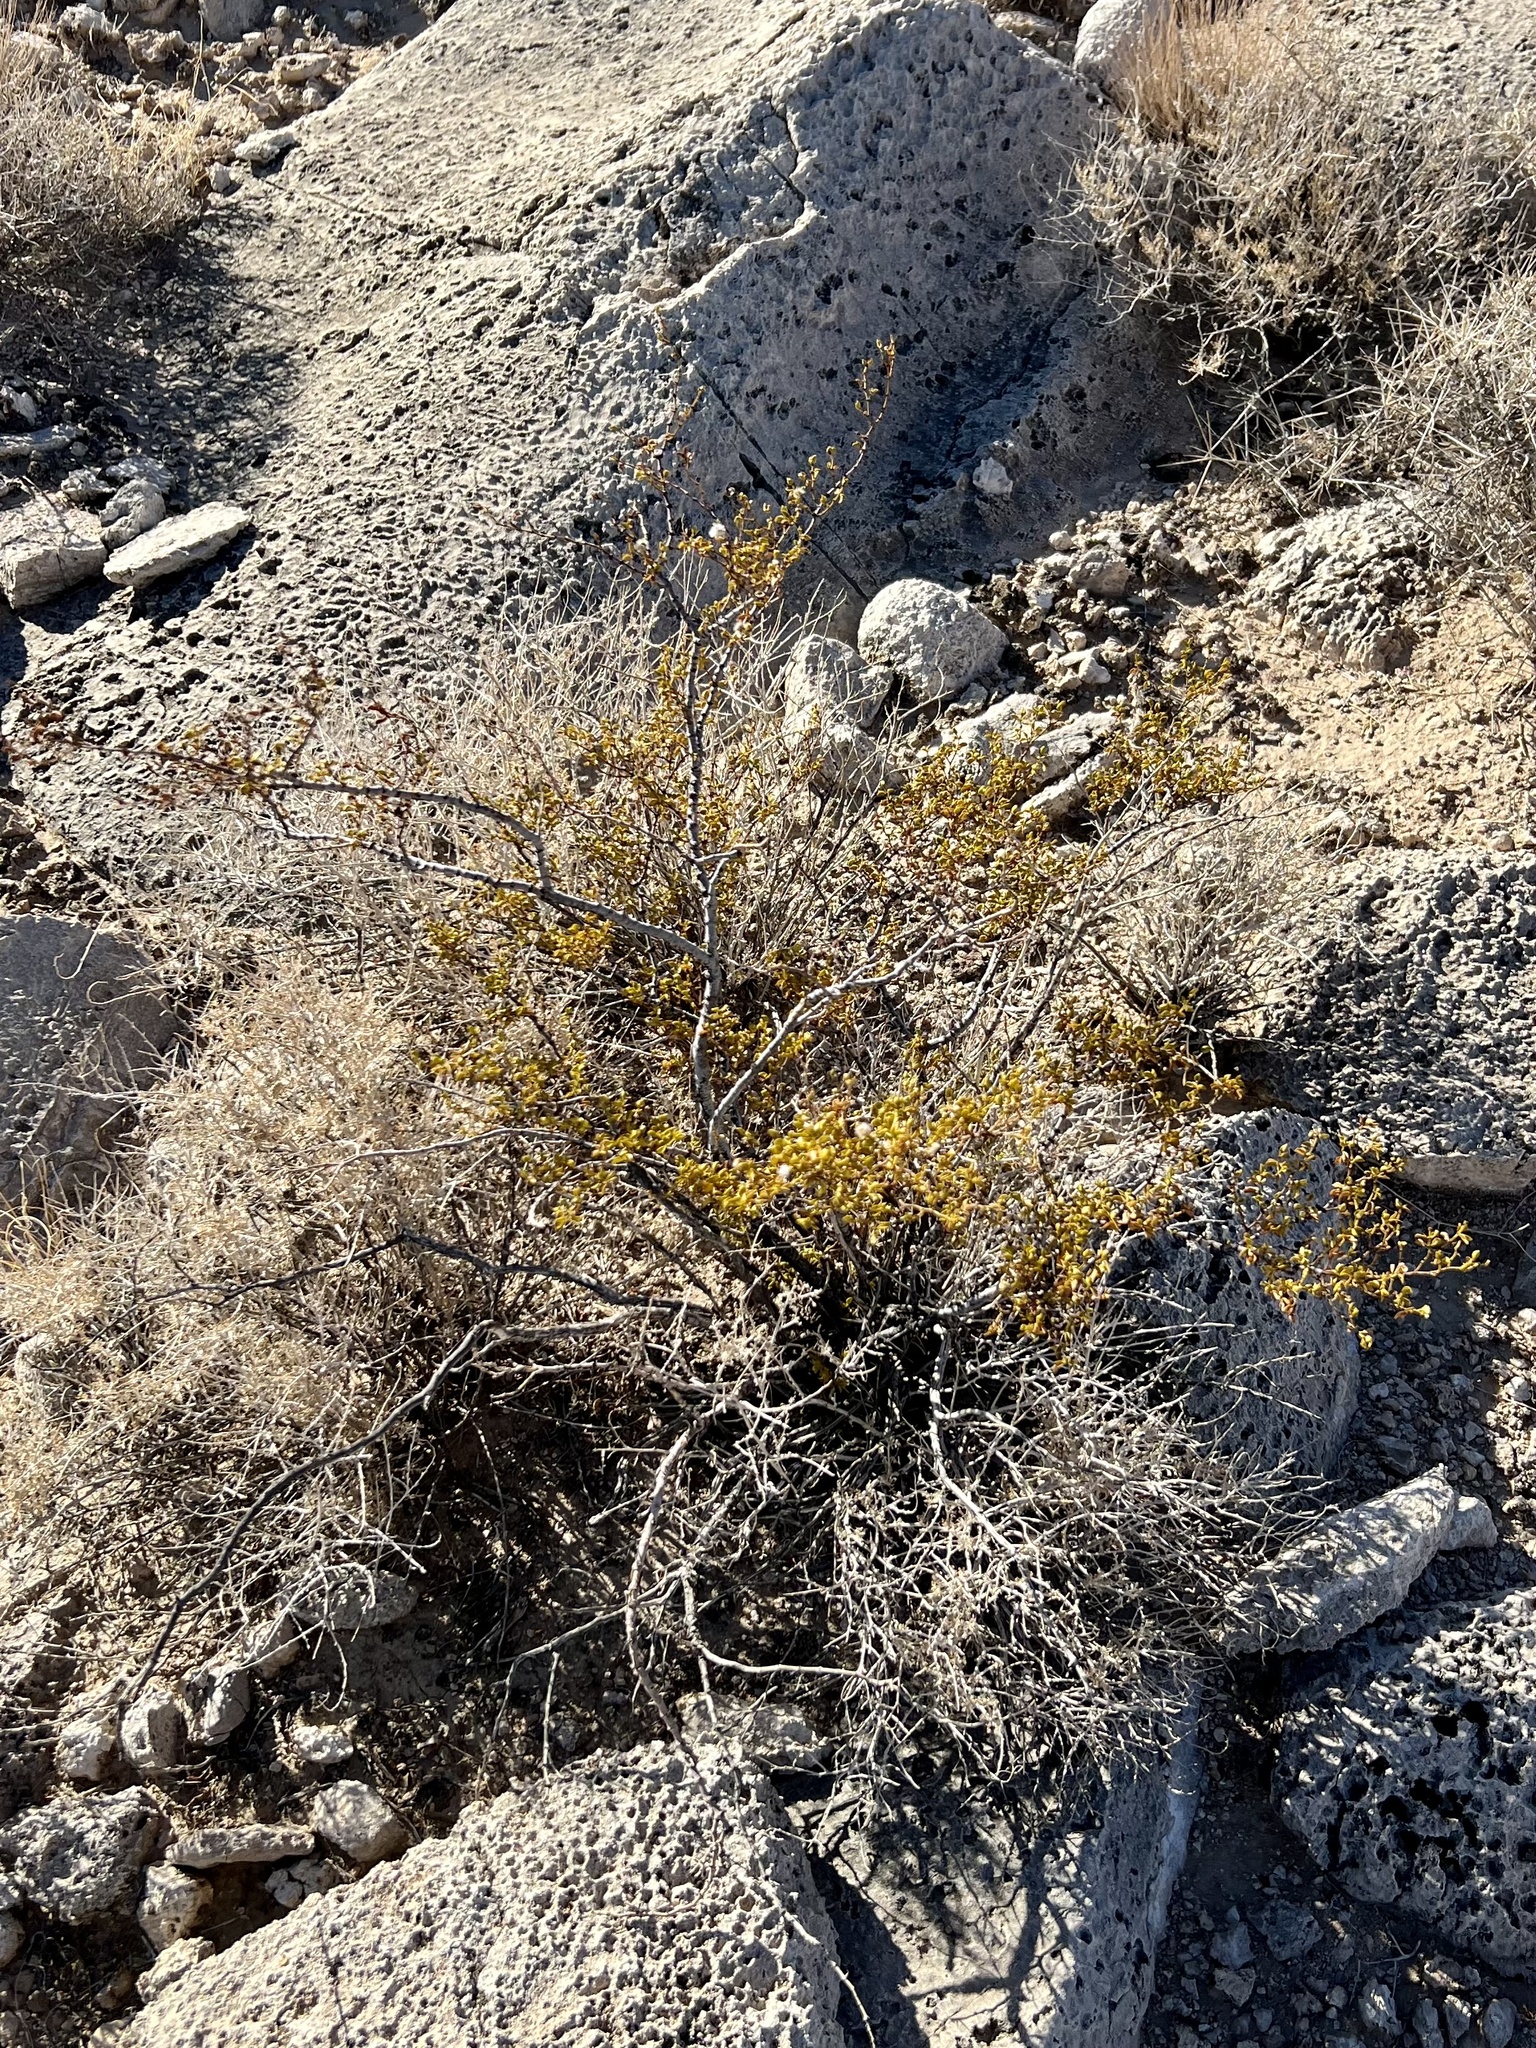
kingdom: Plantae
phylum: Tracheophyta
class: Magnoliopsida
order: Zygophyllales
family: Zygophyllaceae
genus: Larrea
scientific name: Larrea tridentata
